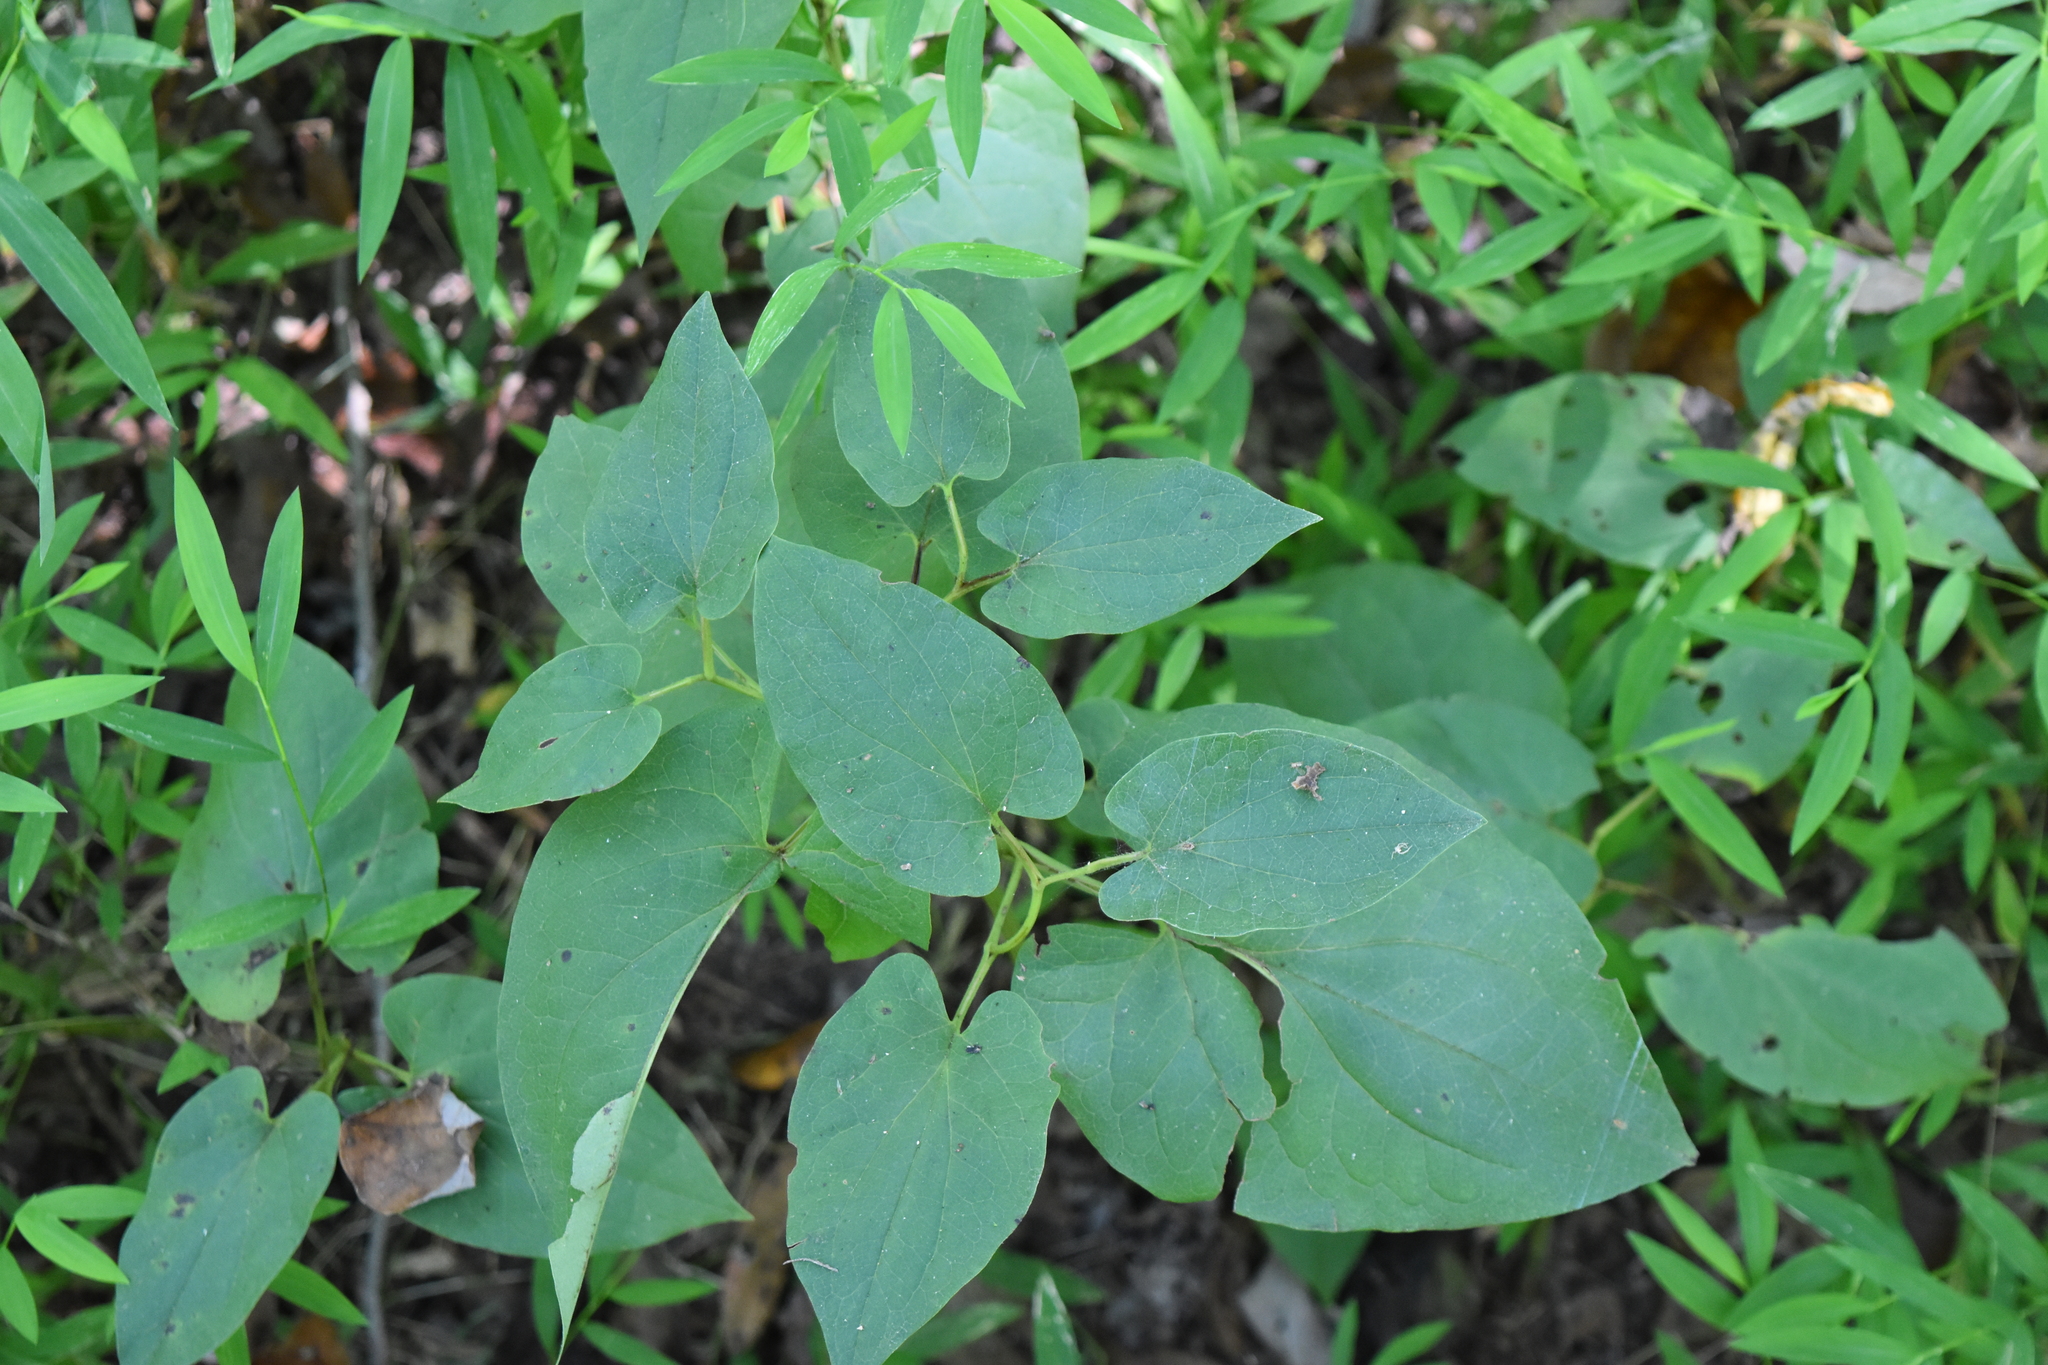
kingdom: Plantae
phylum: Tracheophyta
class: Magnoliopsida
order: Piperales
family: Saururaceae
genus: Saururus
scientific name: Saururus cernuus
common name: Lizard's-tail
